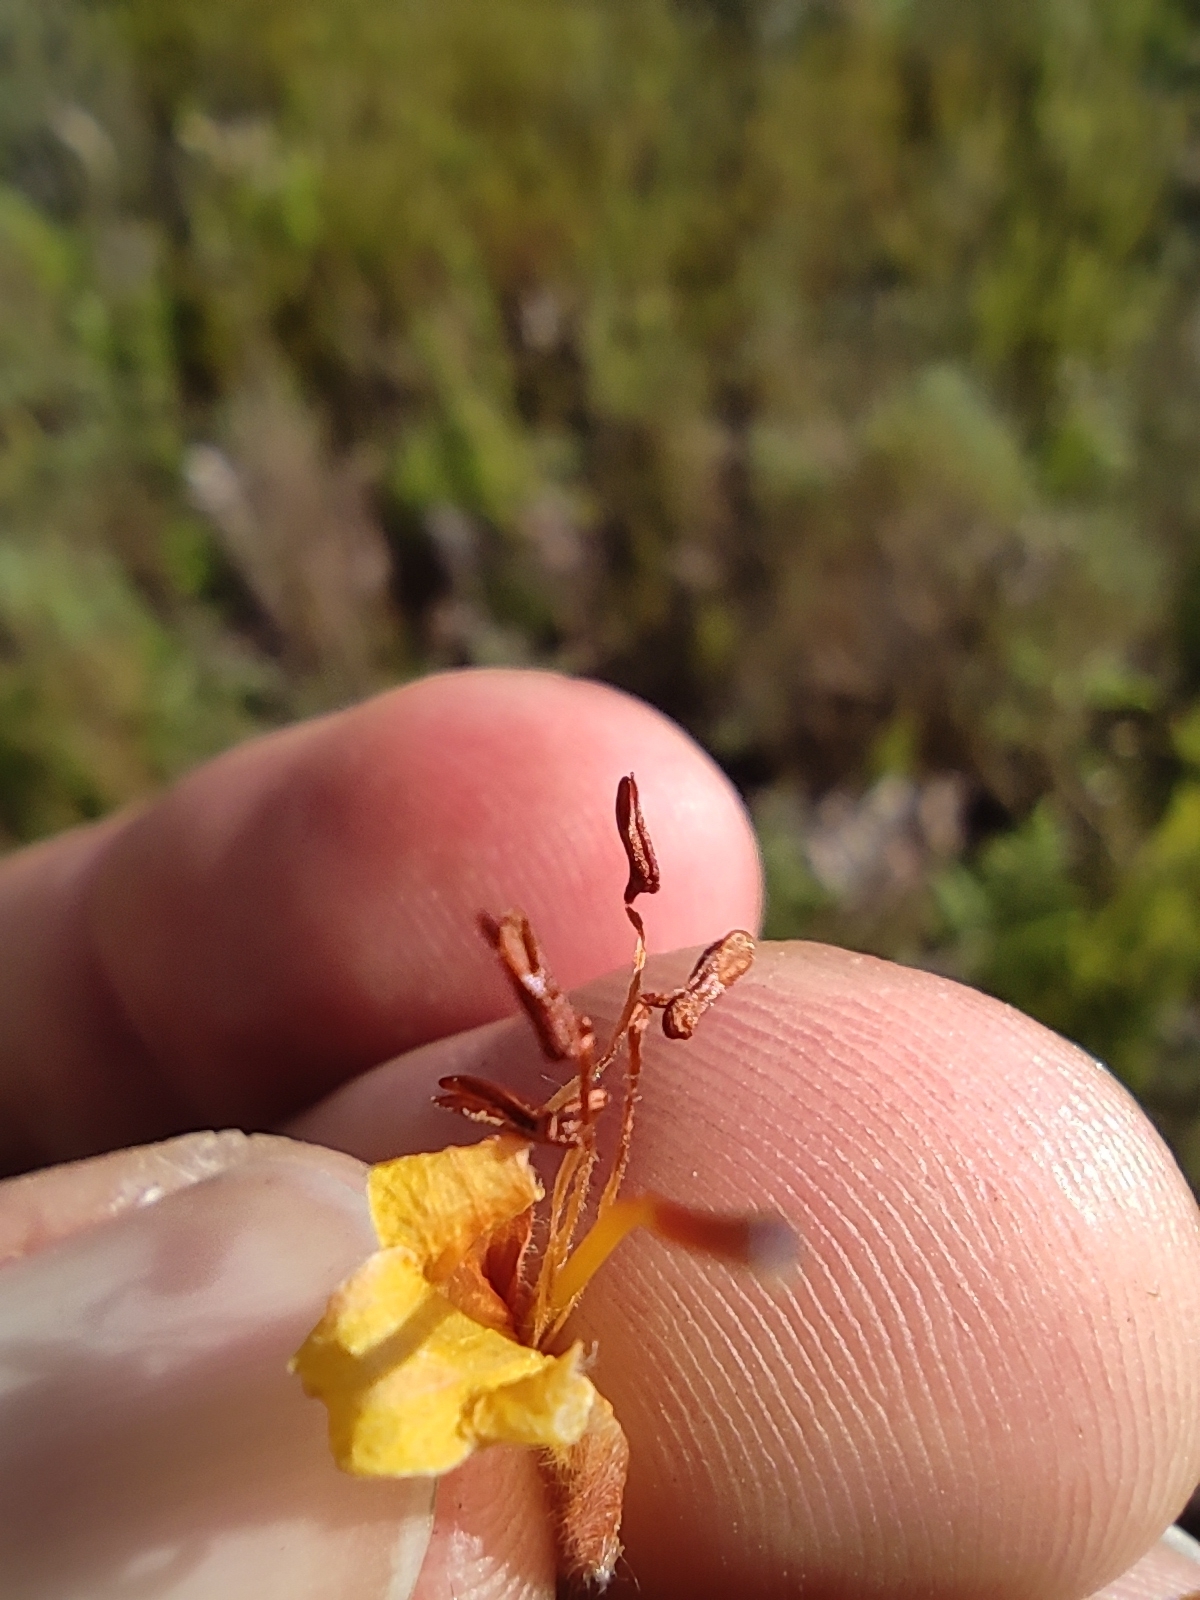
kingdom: Plantae
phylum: Tracheophyta
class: Magnoliopsida
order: Ericales
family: Ericaceae
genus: Erica
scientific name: Erica conspicua
